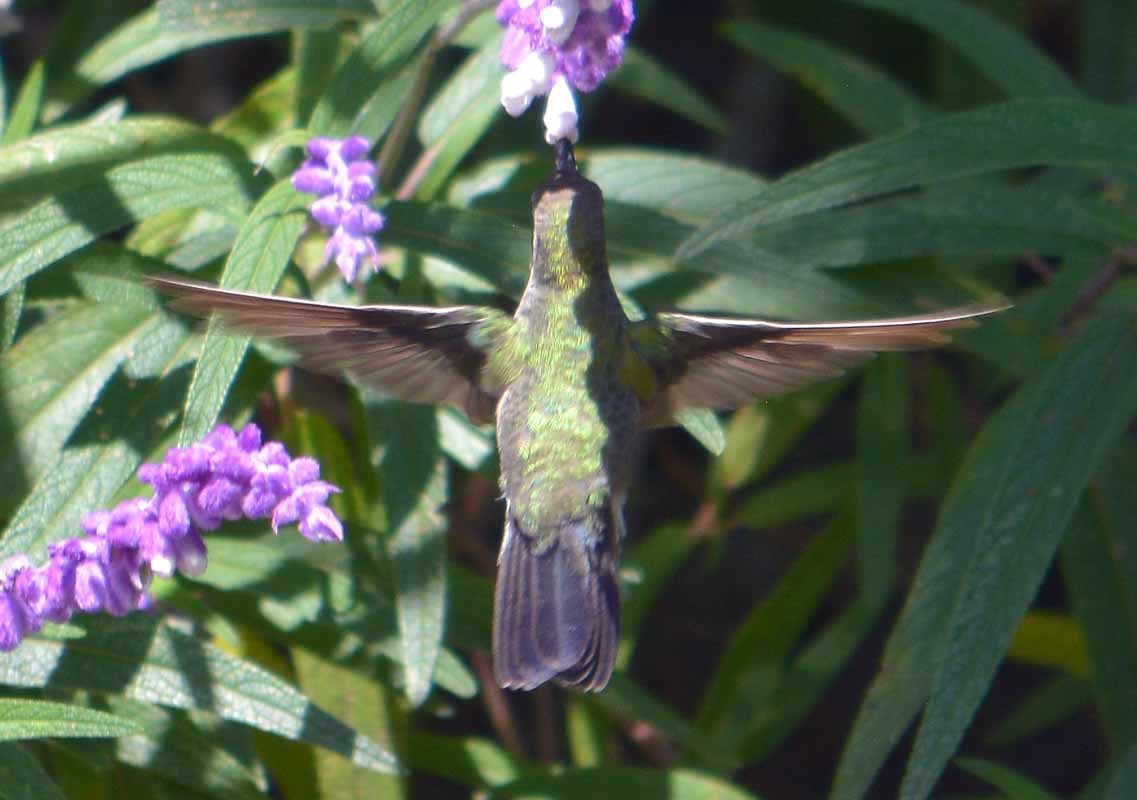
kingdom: Animalia
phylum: Chordata
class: Aves
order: Apodiformes
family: Trochilidae
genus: Cynanthus
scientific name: Cynanthus latirostris
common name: Broad-billed hummingbird
